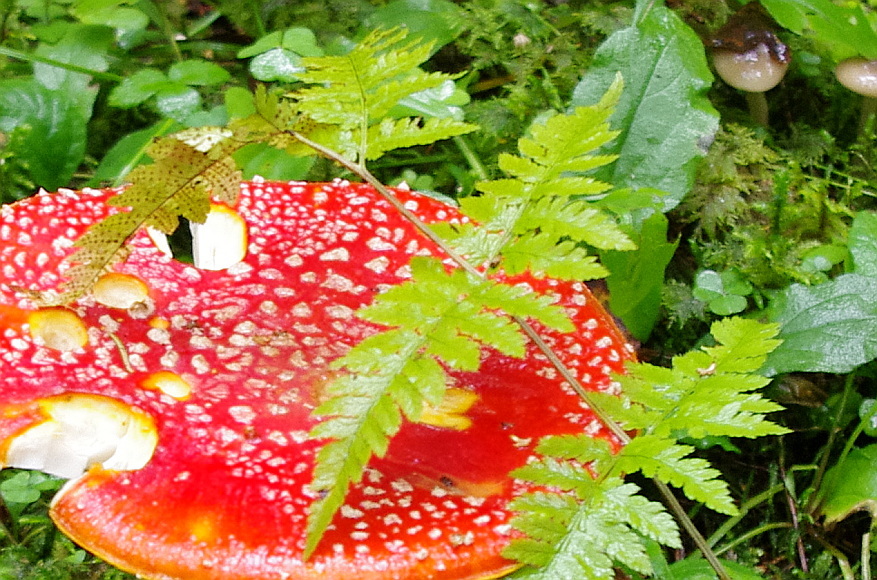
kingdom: Plantae
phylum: Tracheophyta
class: Polypodiopsida
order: Polypodiales
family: Dryopteridaceae
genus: Dryopteris
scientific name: Dryopteris carthusiana
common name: Narrow buckler-fern
